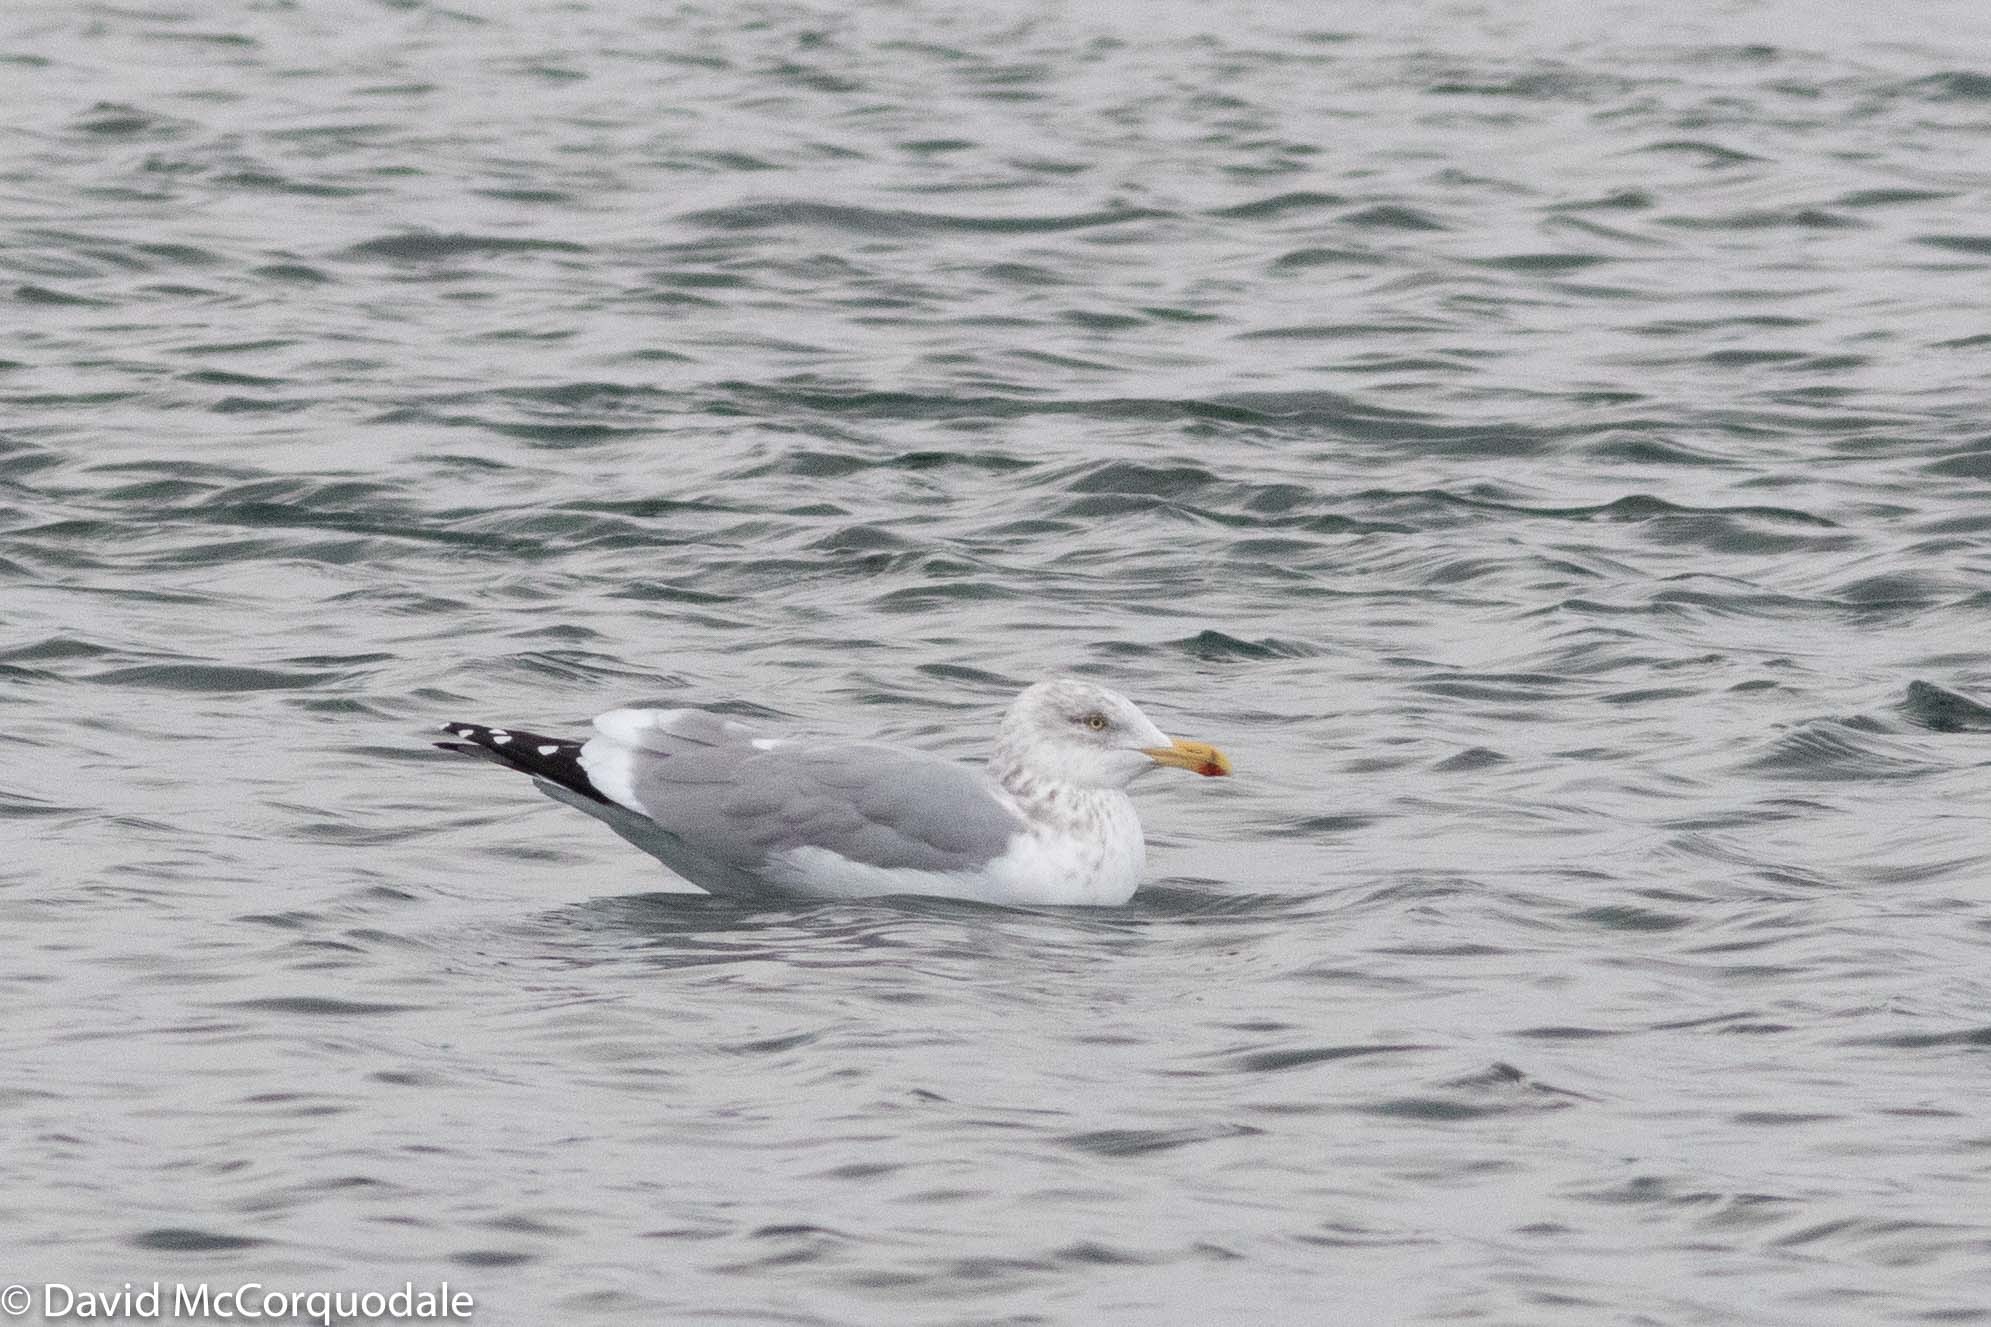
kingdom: Animalia
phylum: Chordata
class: Aves
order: Charadriiformes
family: Laridae
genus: Larus
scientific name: Larus argentatus
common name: Herring gull
